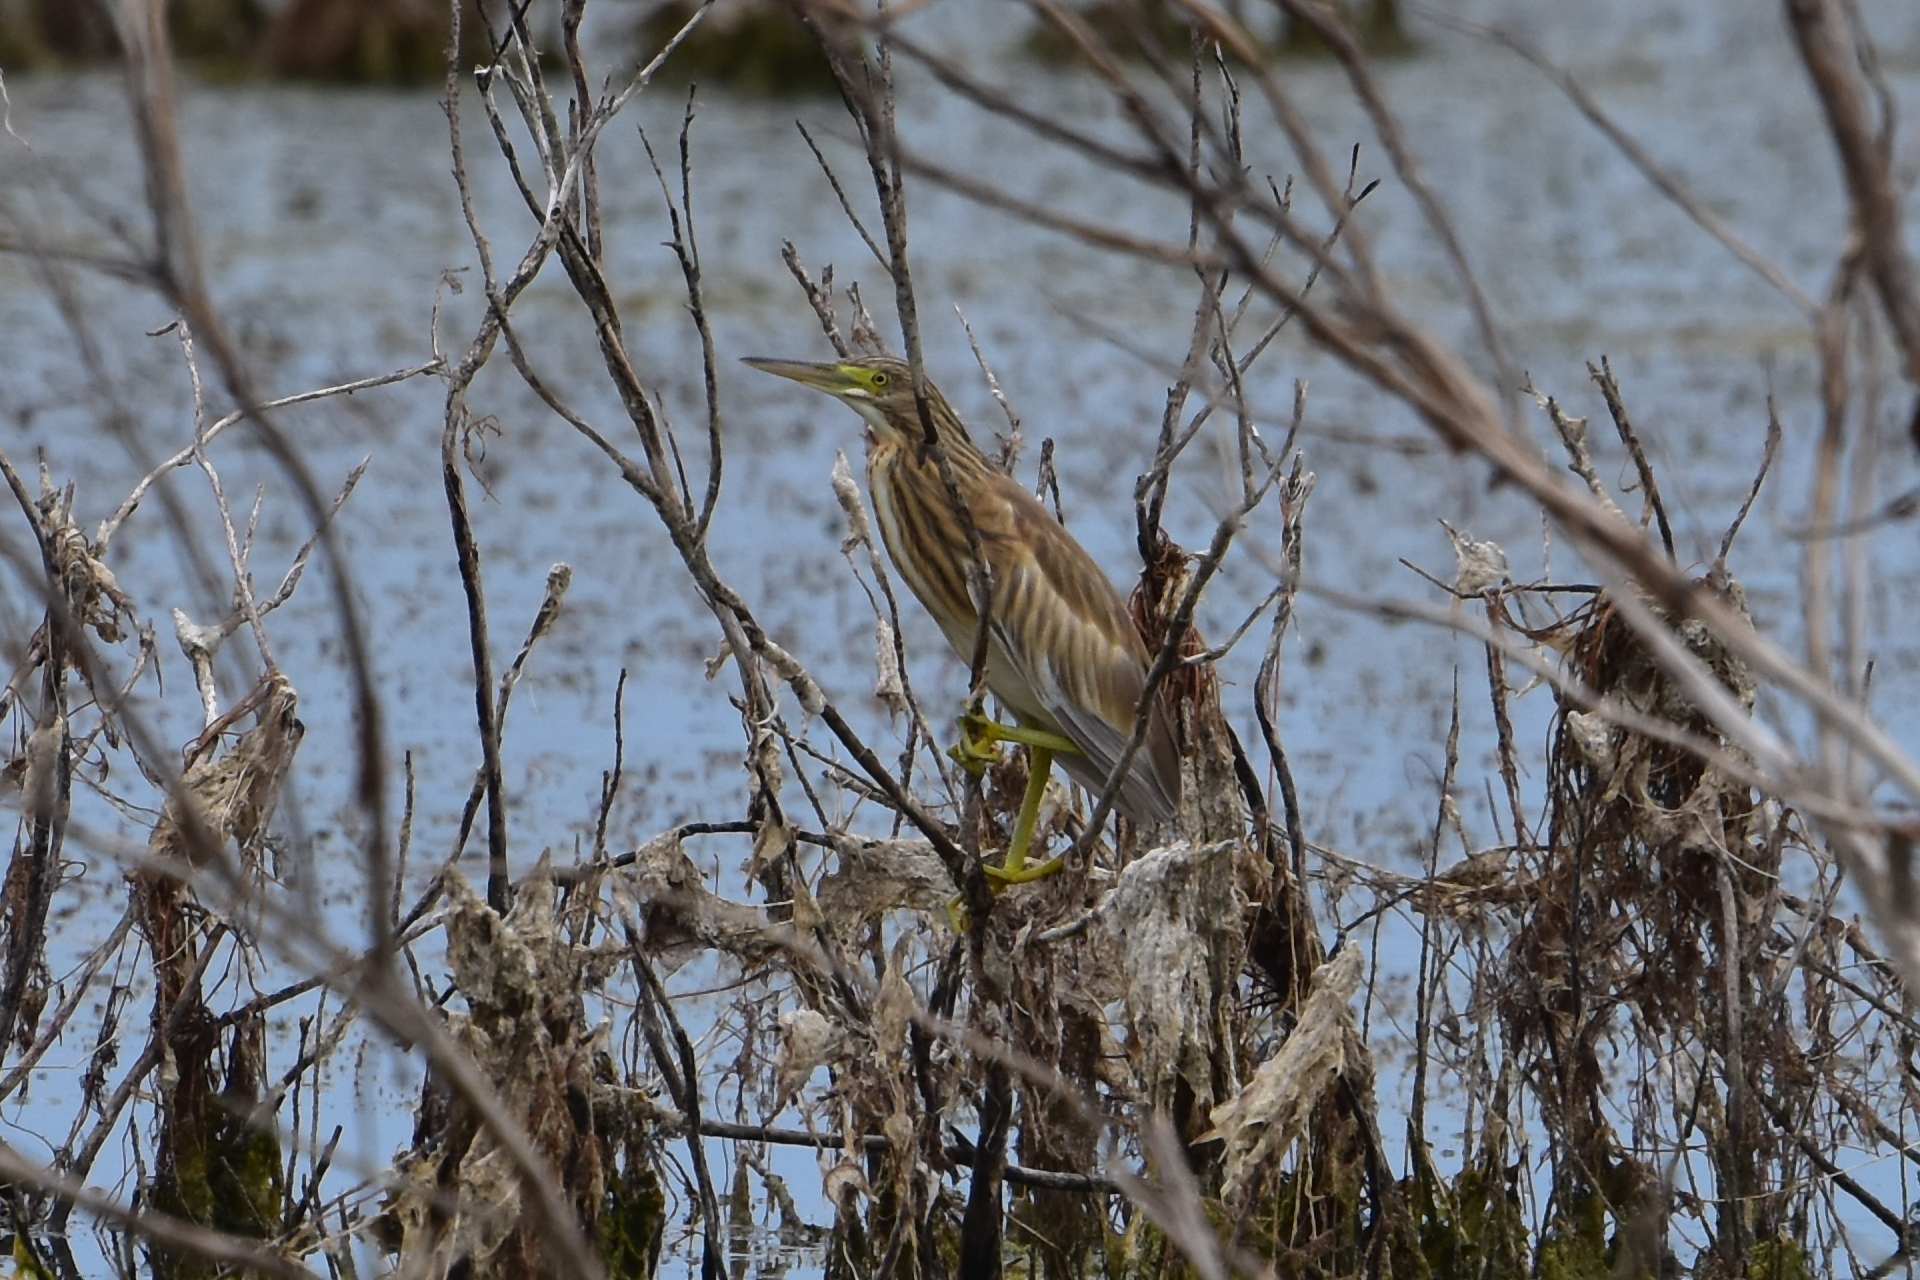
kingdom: Animalia
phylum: Chordata
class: Aves
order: Pelecaniformes
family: Ardeidae
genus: Ardeola
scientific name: Ardeola ralloides
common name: Squacco heron
